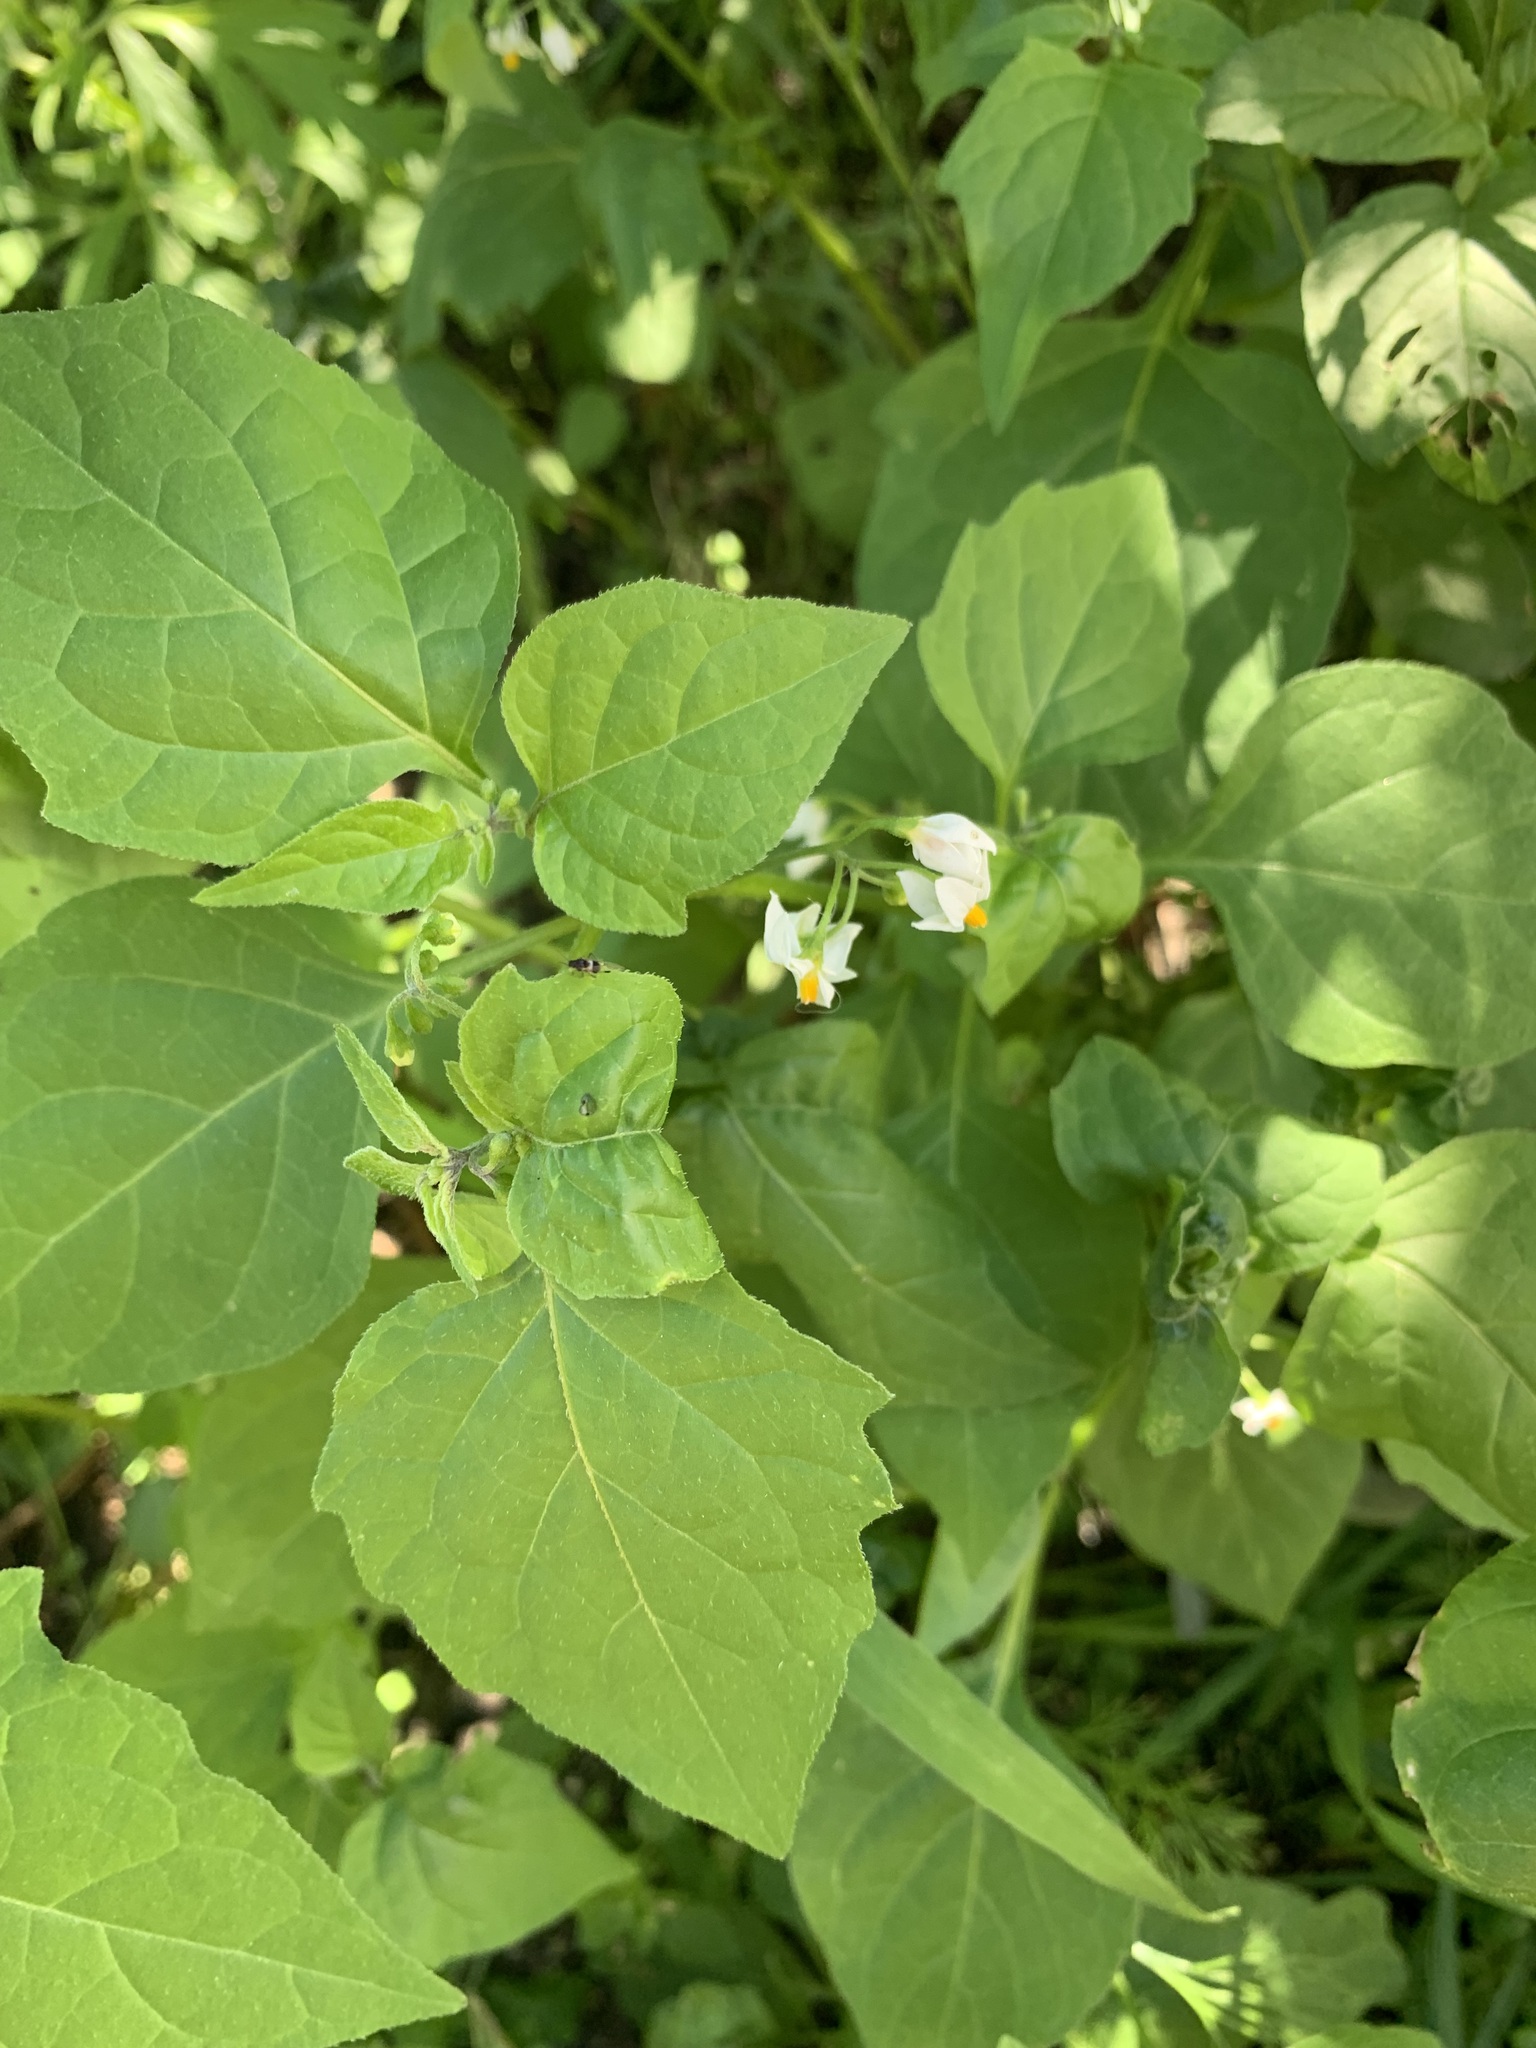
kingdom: Plantae
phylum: Tracheophyta
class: Magnoliopsida
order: Solanales
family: Solanaceae
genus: Solanum
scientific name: Solanum nigrum
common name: Black nightshade
